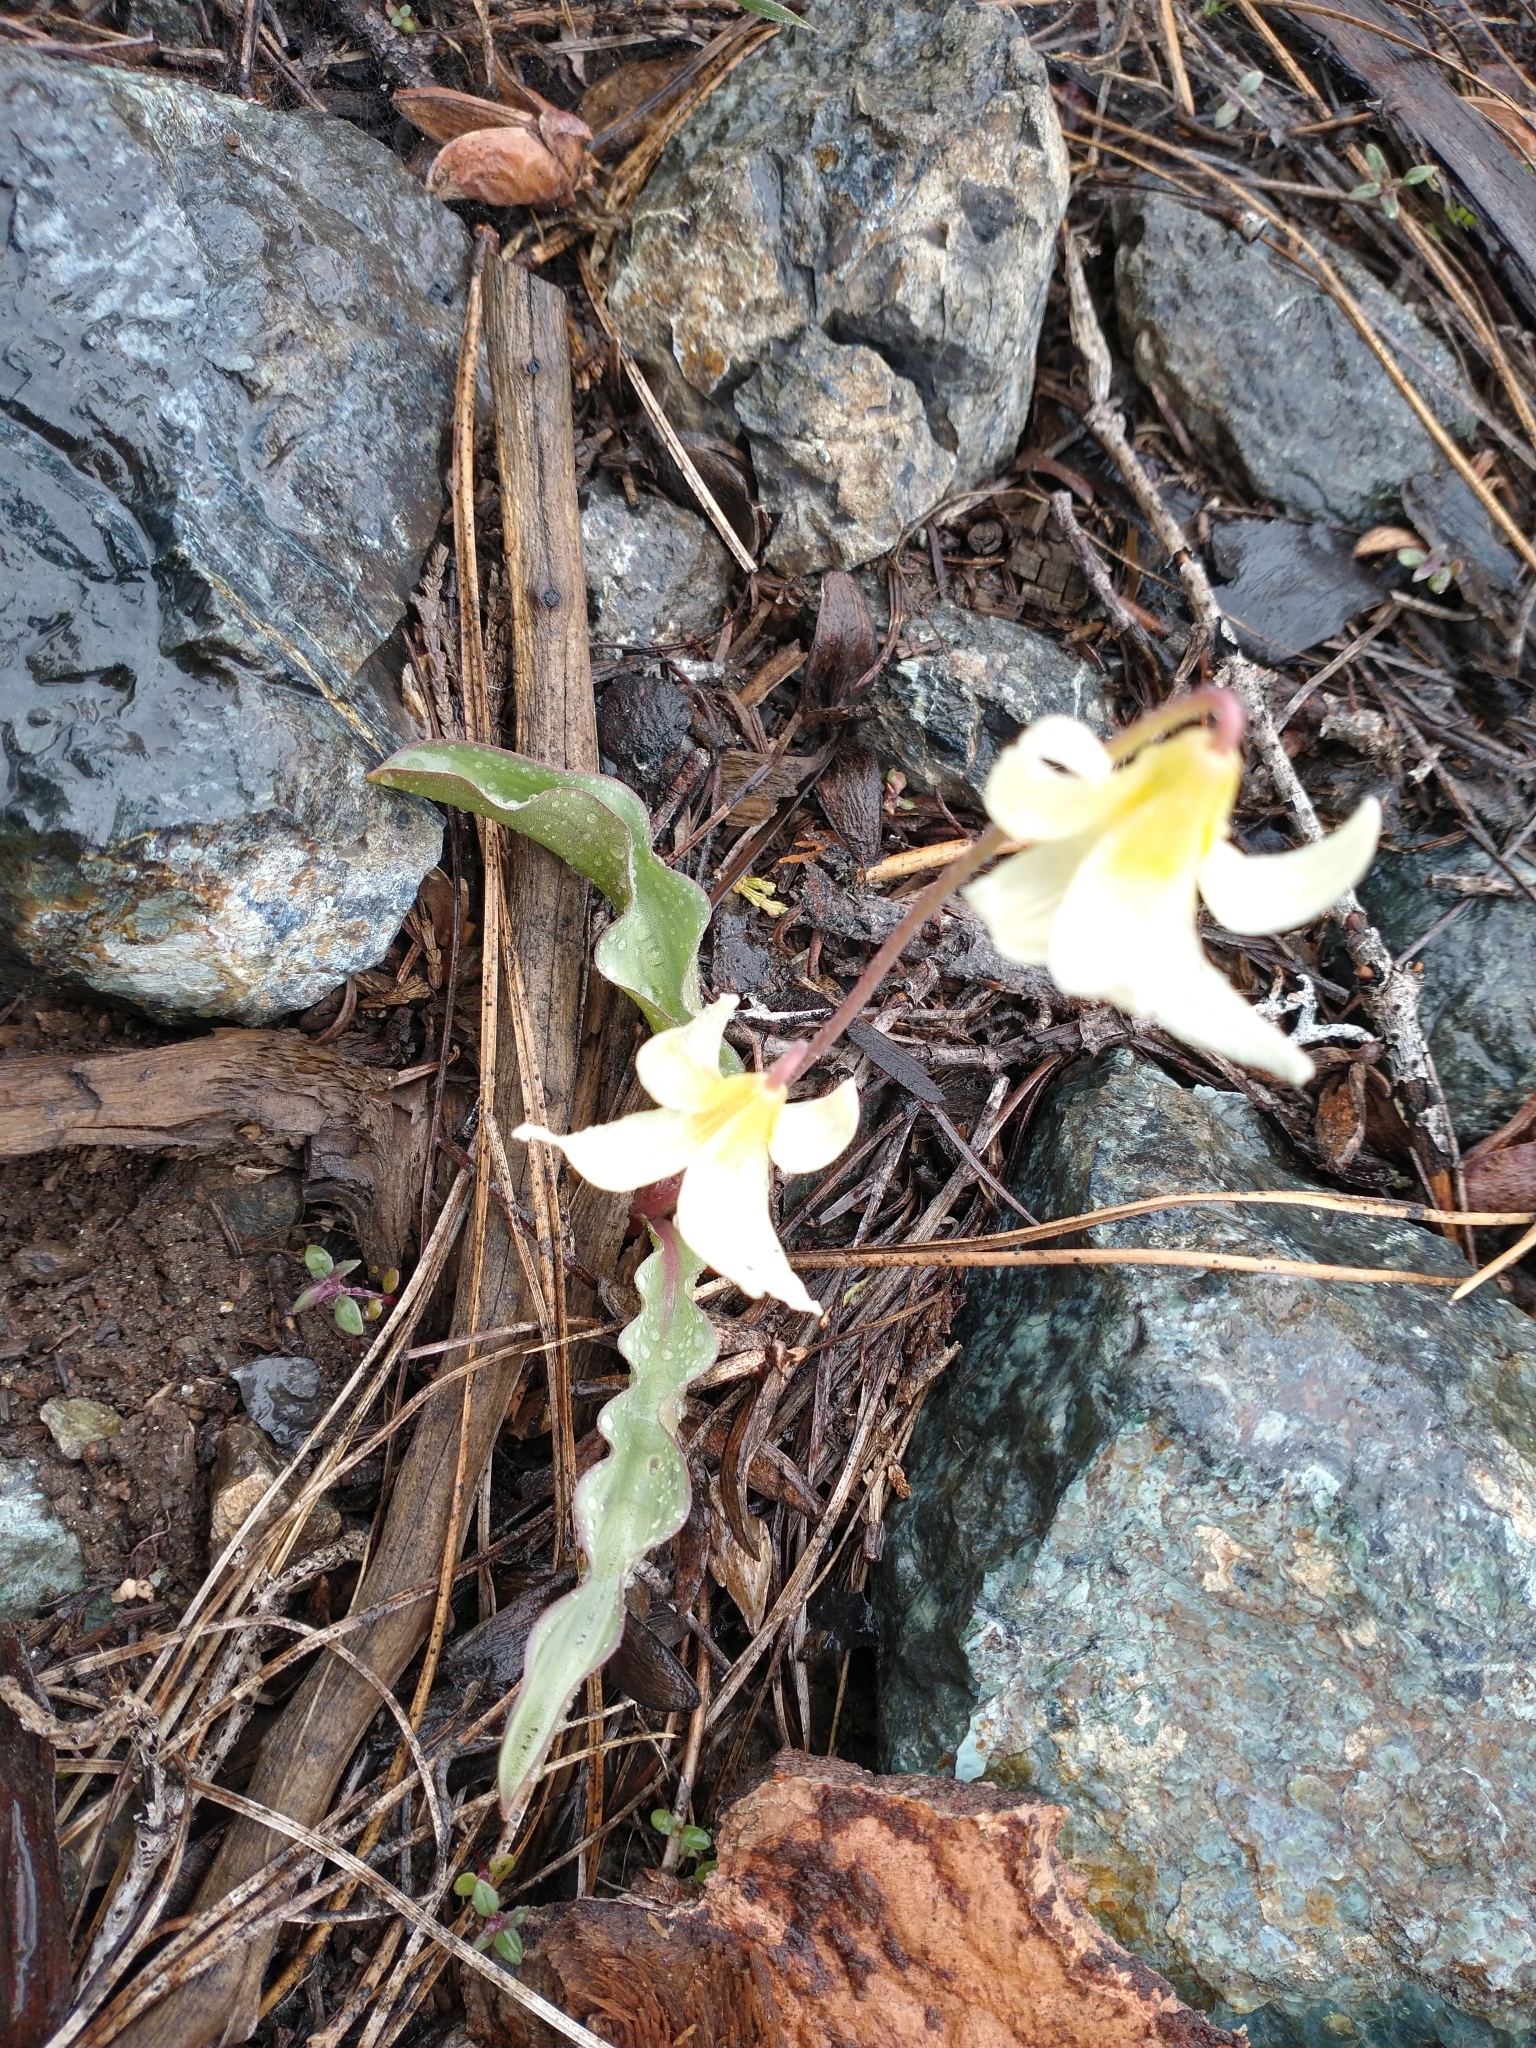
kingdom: Plantae
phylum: Tracheophyta
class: Liliopsida
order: Liliales
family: Liliaceae
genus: Erythronium
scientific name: Erythronium californicum
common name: Fawn-lily
